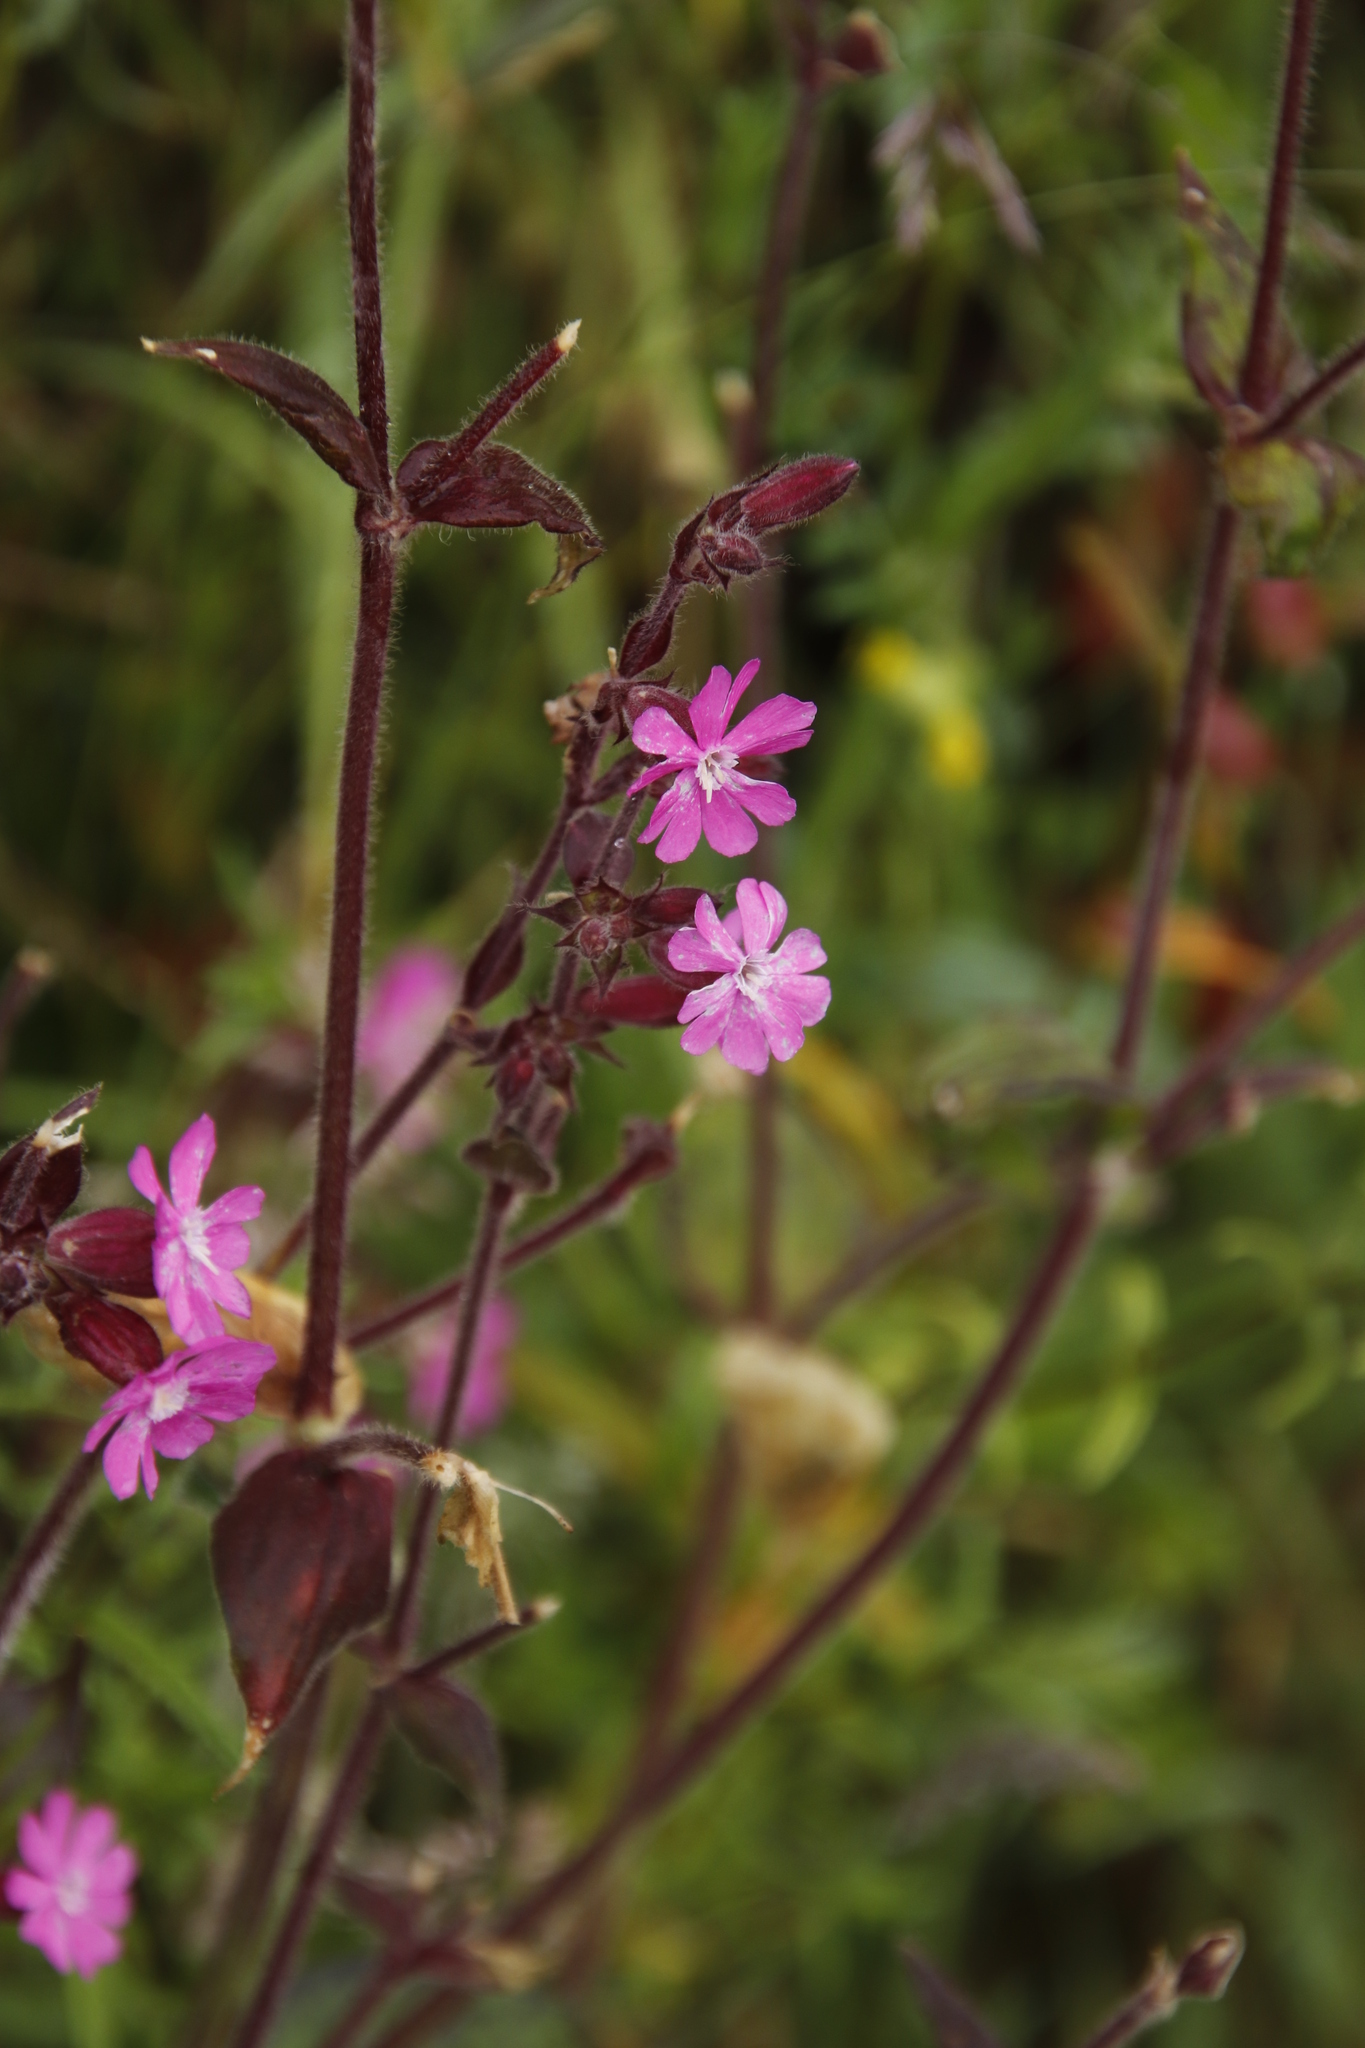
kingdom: Plantae
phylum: Tracheophyta
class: Magnoliopsida
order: Caryophyllales
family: Caryophyllaceae
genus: Silene
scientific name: Silene dioica
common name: Red campion
